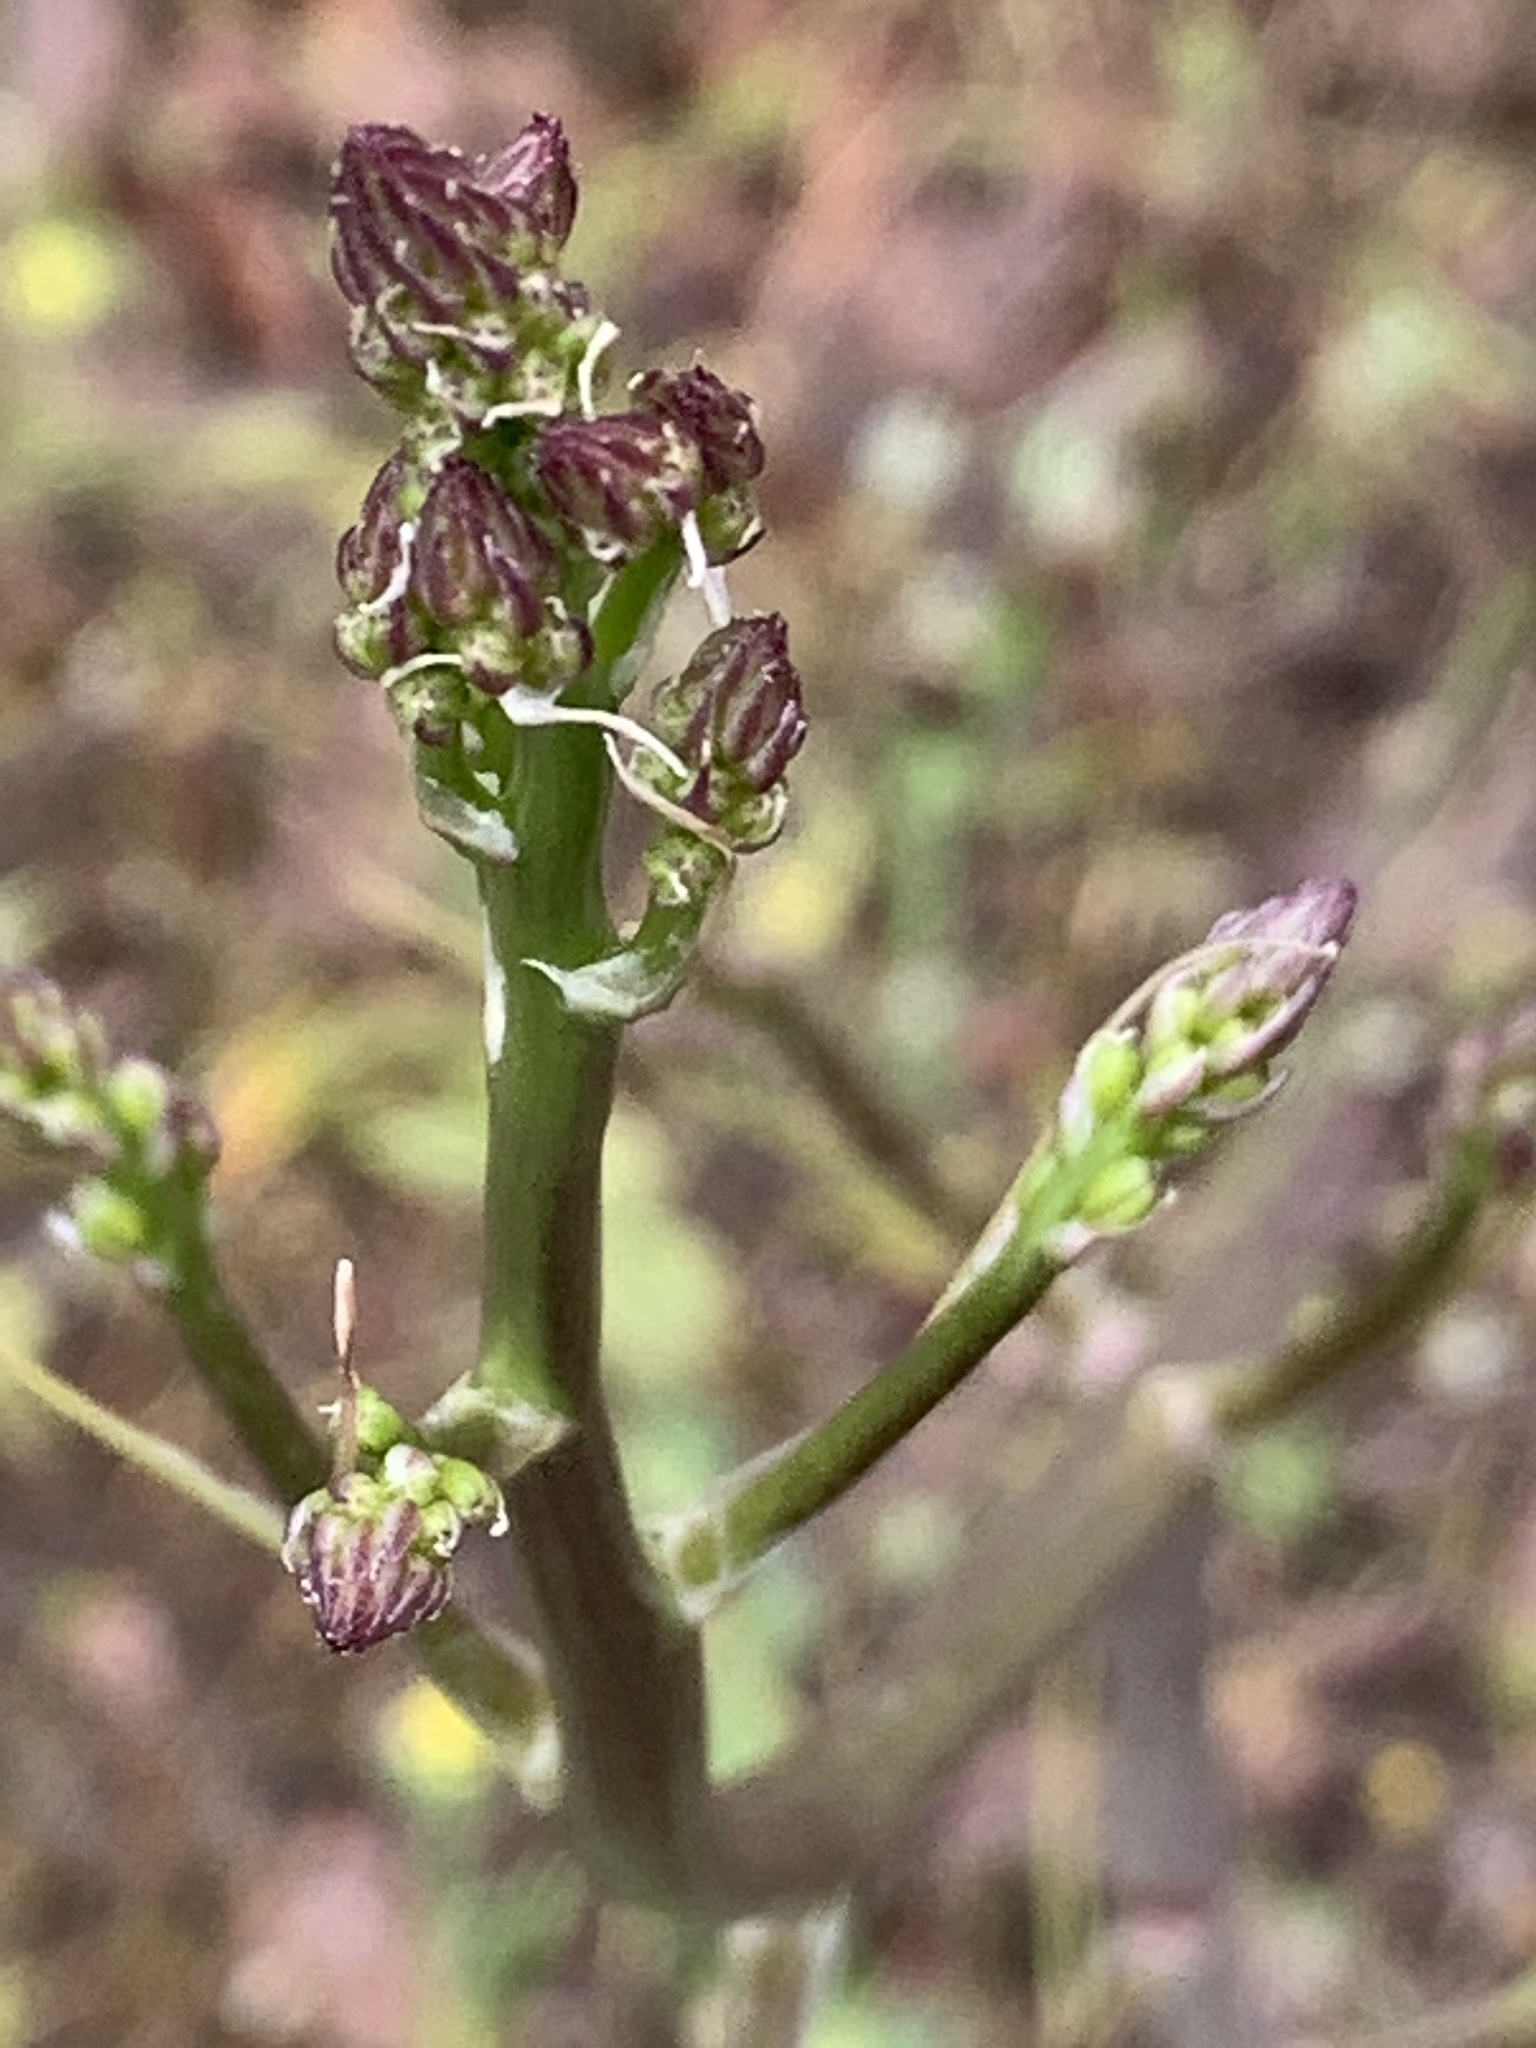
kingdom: Plantae
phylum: Tracheophyta
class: Liliopsida
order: Asparagales
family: Asparagaceae
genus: Chlorogalum
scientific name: Chlorogalum pomeridianum
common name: Amole
